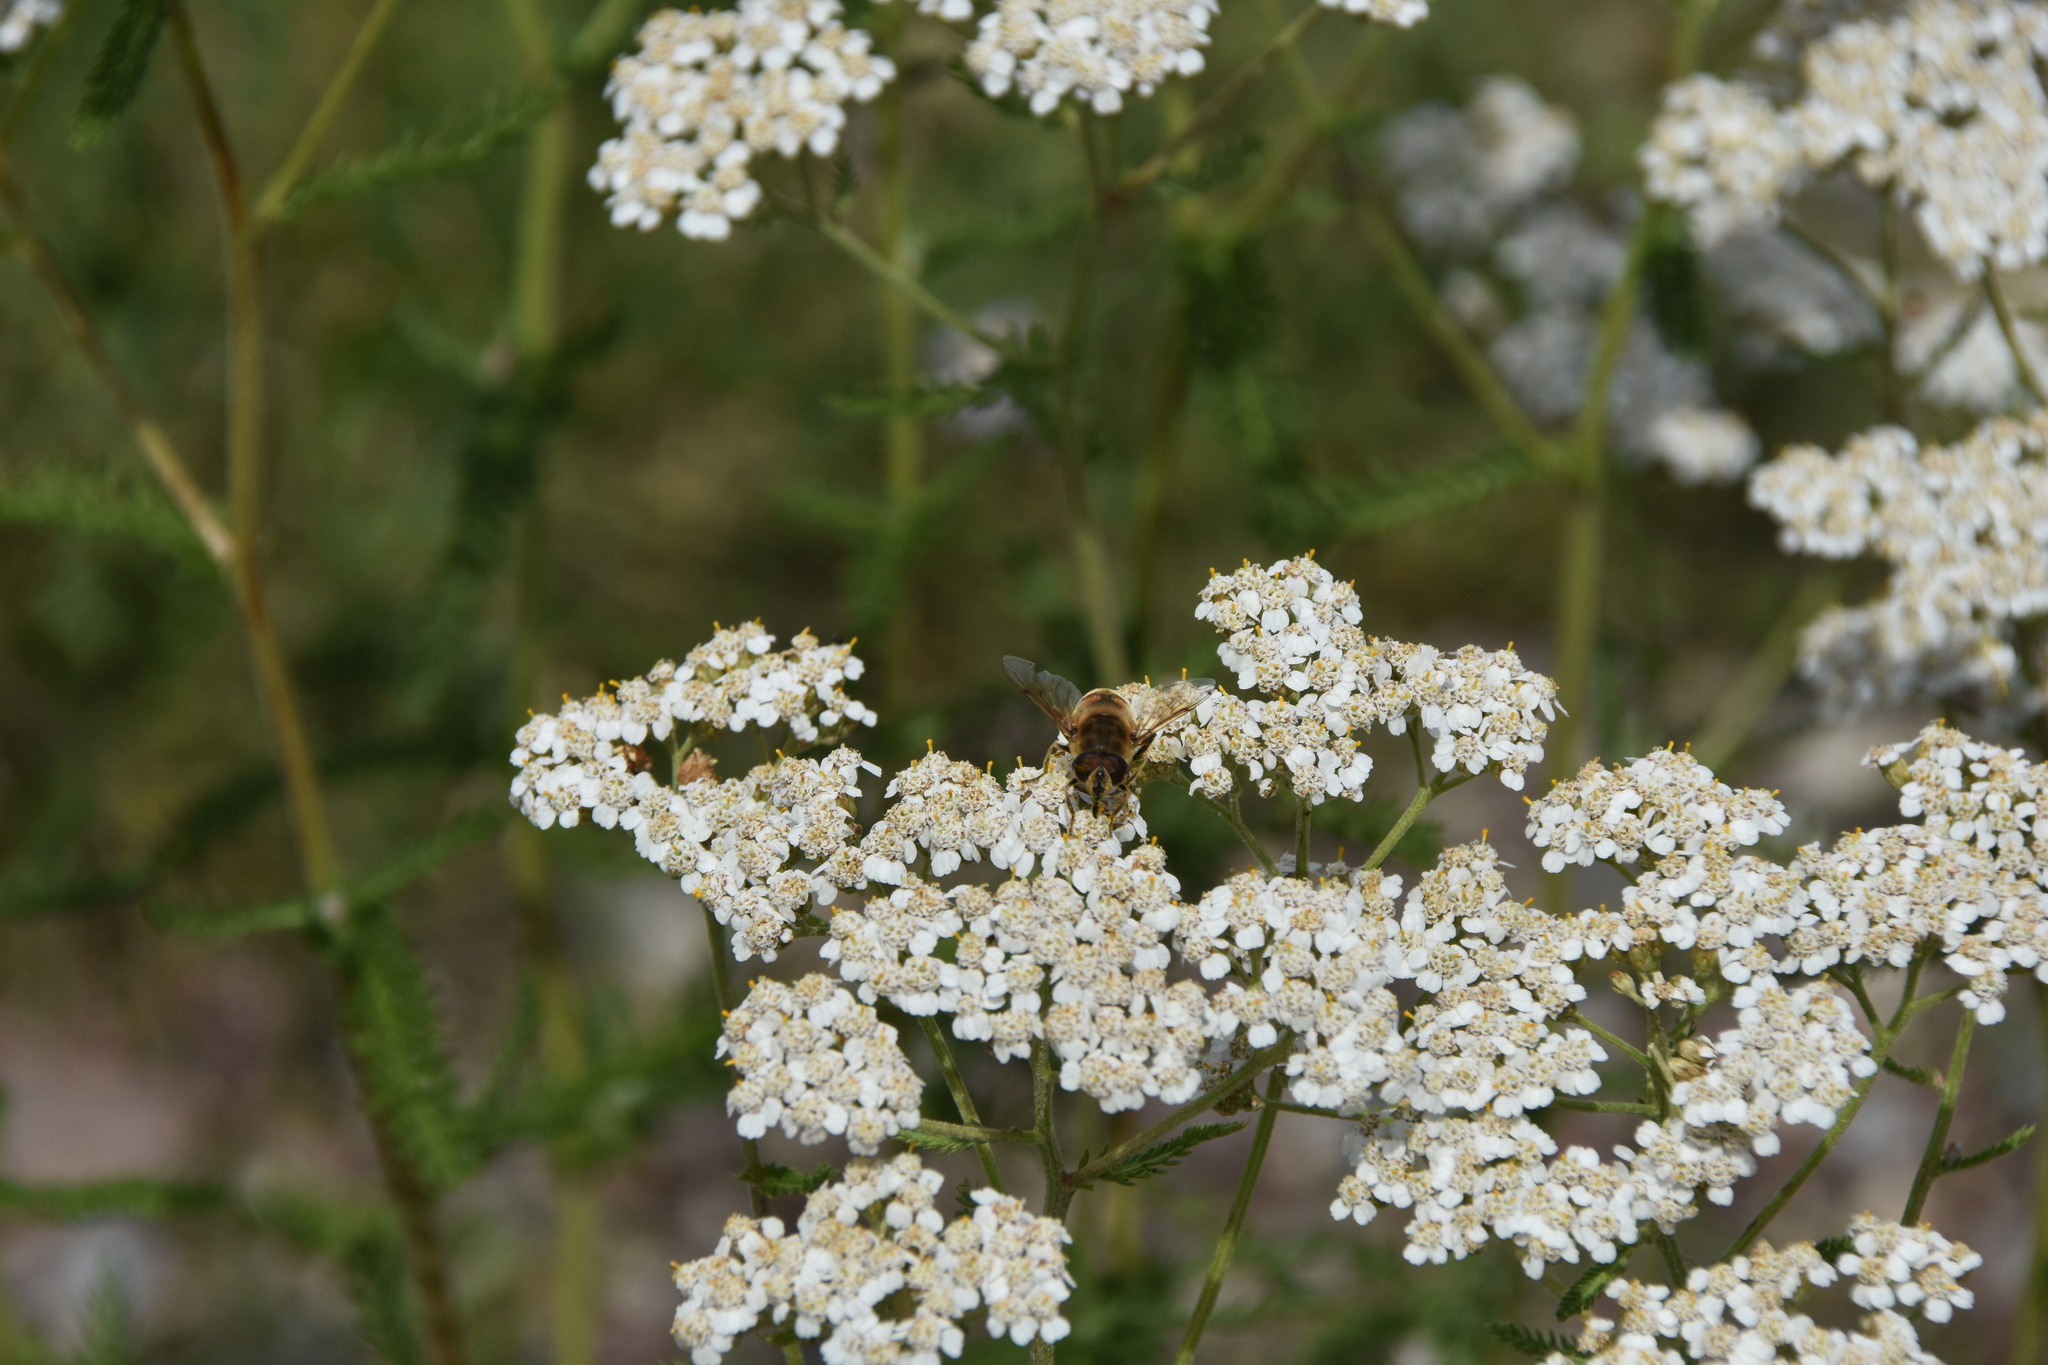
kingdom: Animalia
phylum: Arthropoda
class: Insecta
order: Diptera
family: Syrphidae
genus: Eristalis
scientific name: Eristalis tenax
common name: Drone fly
